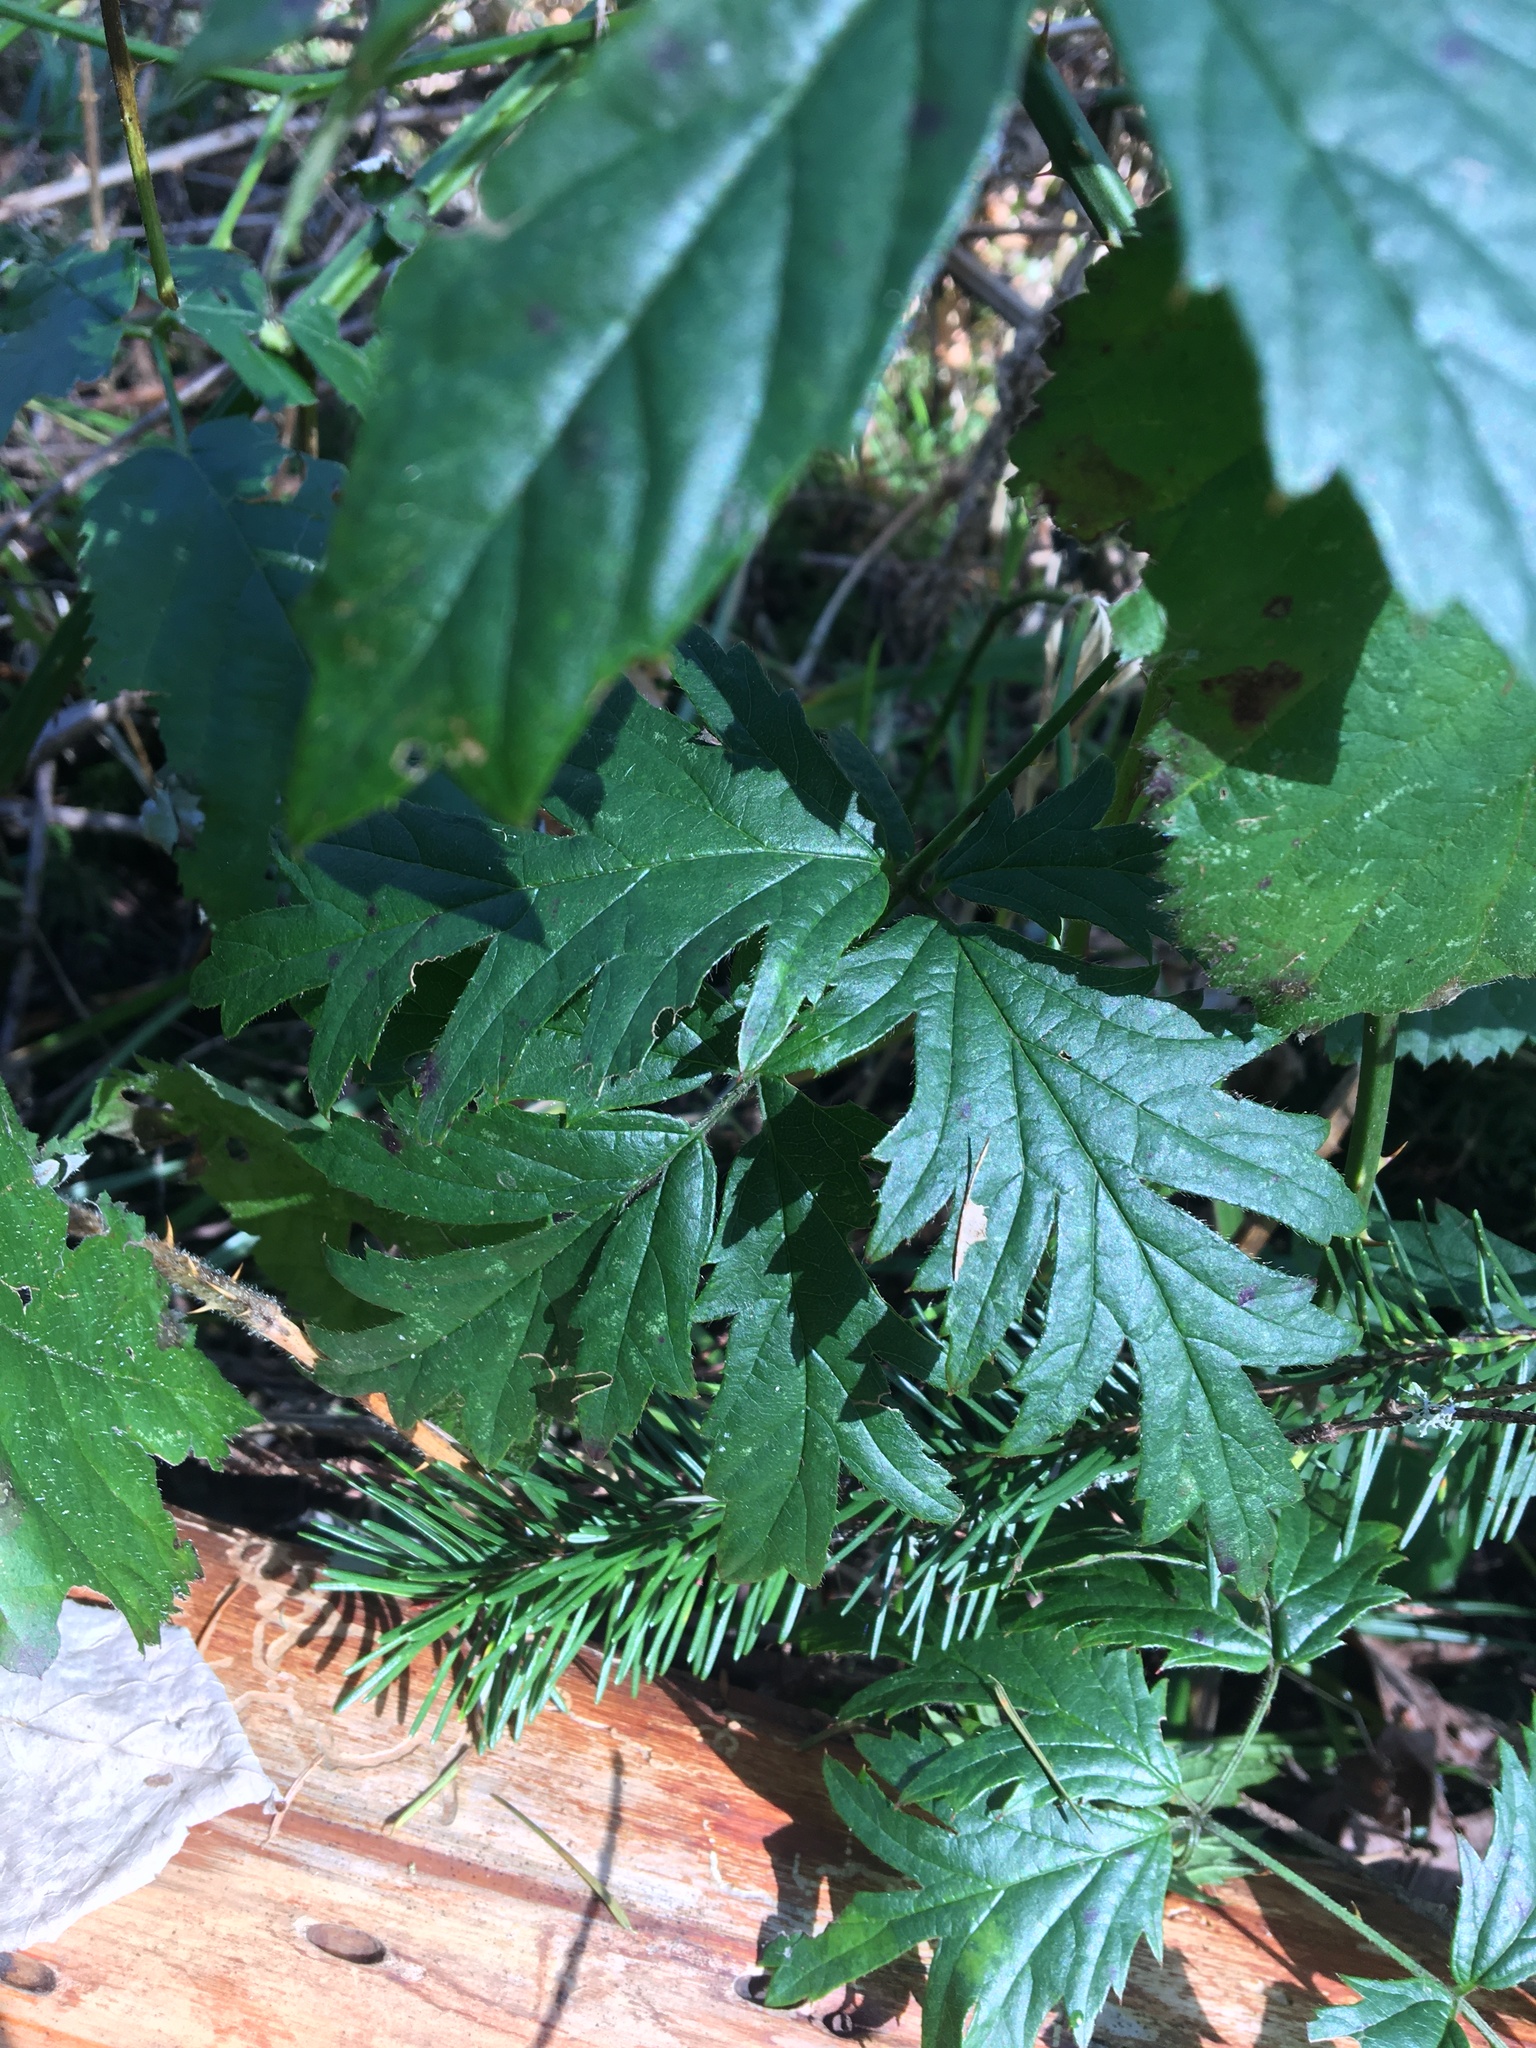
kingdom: Plantae
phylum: Tracheophyta
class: Magnoliopsida
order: Rosales
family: Rosaceae
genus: Rubus
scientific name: Rubus laciniatus
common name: Evergreen blackberry
